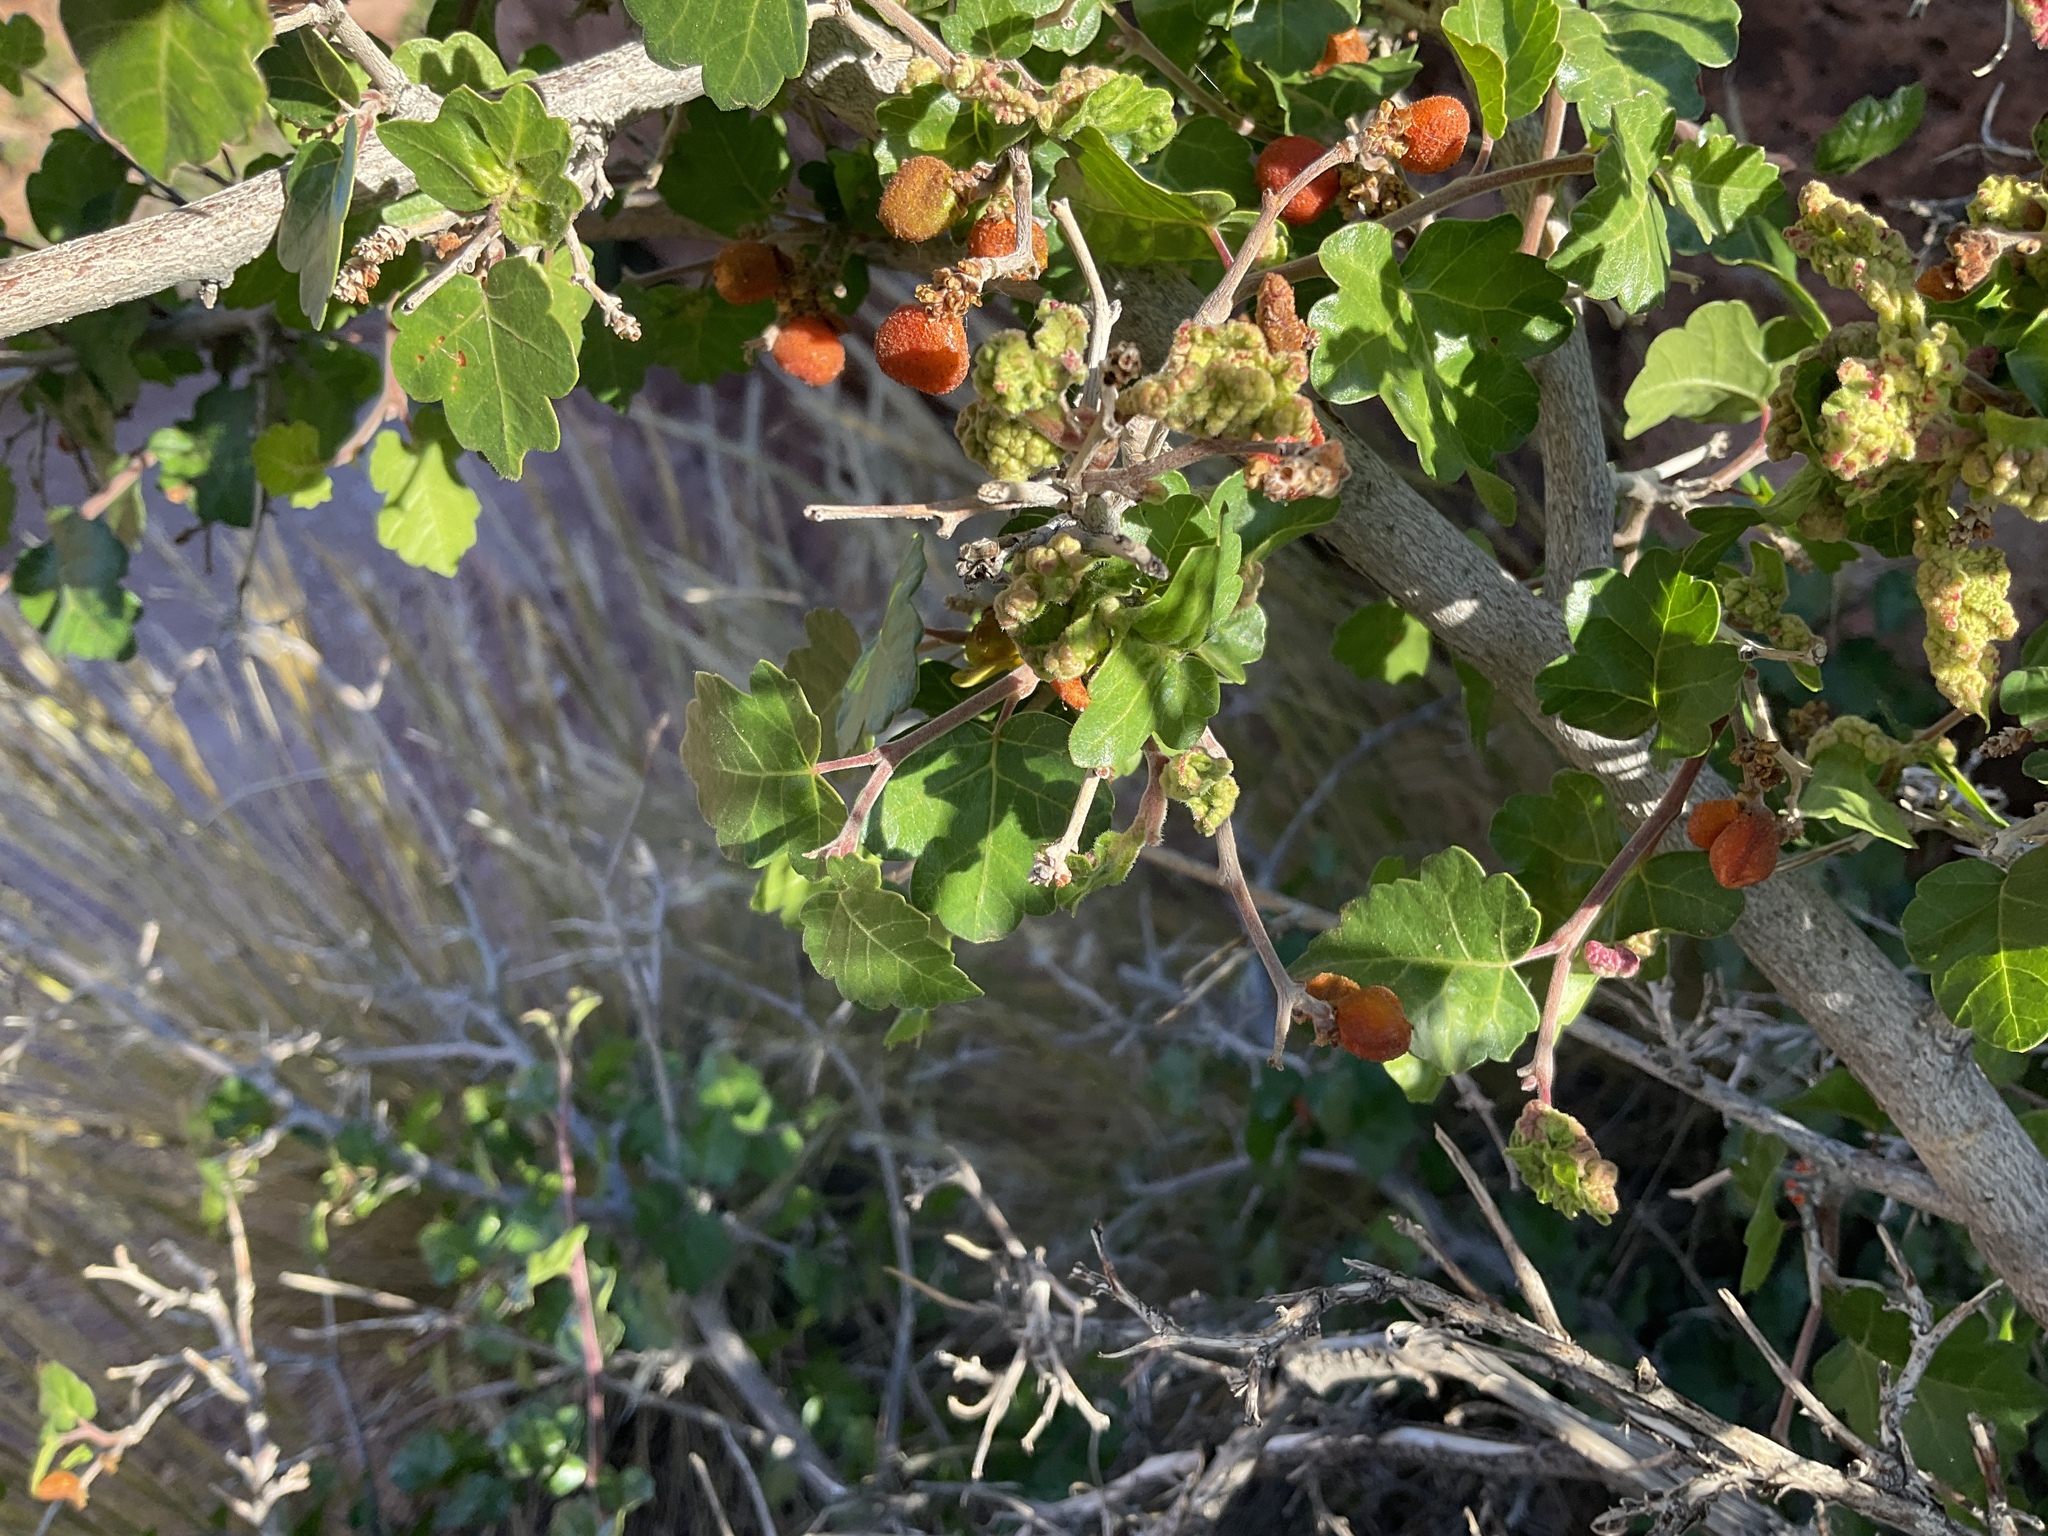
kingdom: Plantae
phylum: Tracheophyta
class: Magnoliopsida
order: Sapindales
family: Anacardiaceae
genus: Rhus
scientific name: Rhus trilobata
